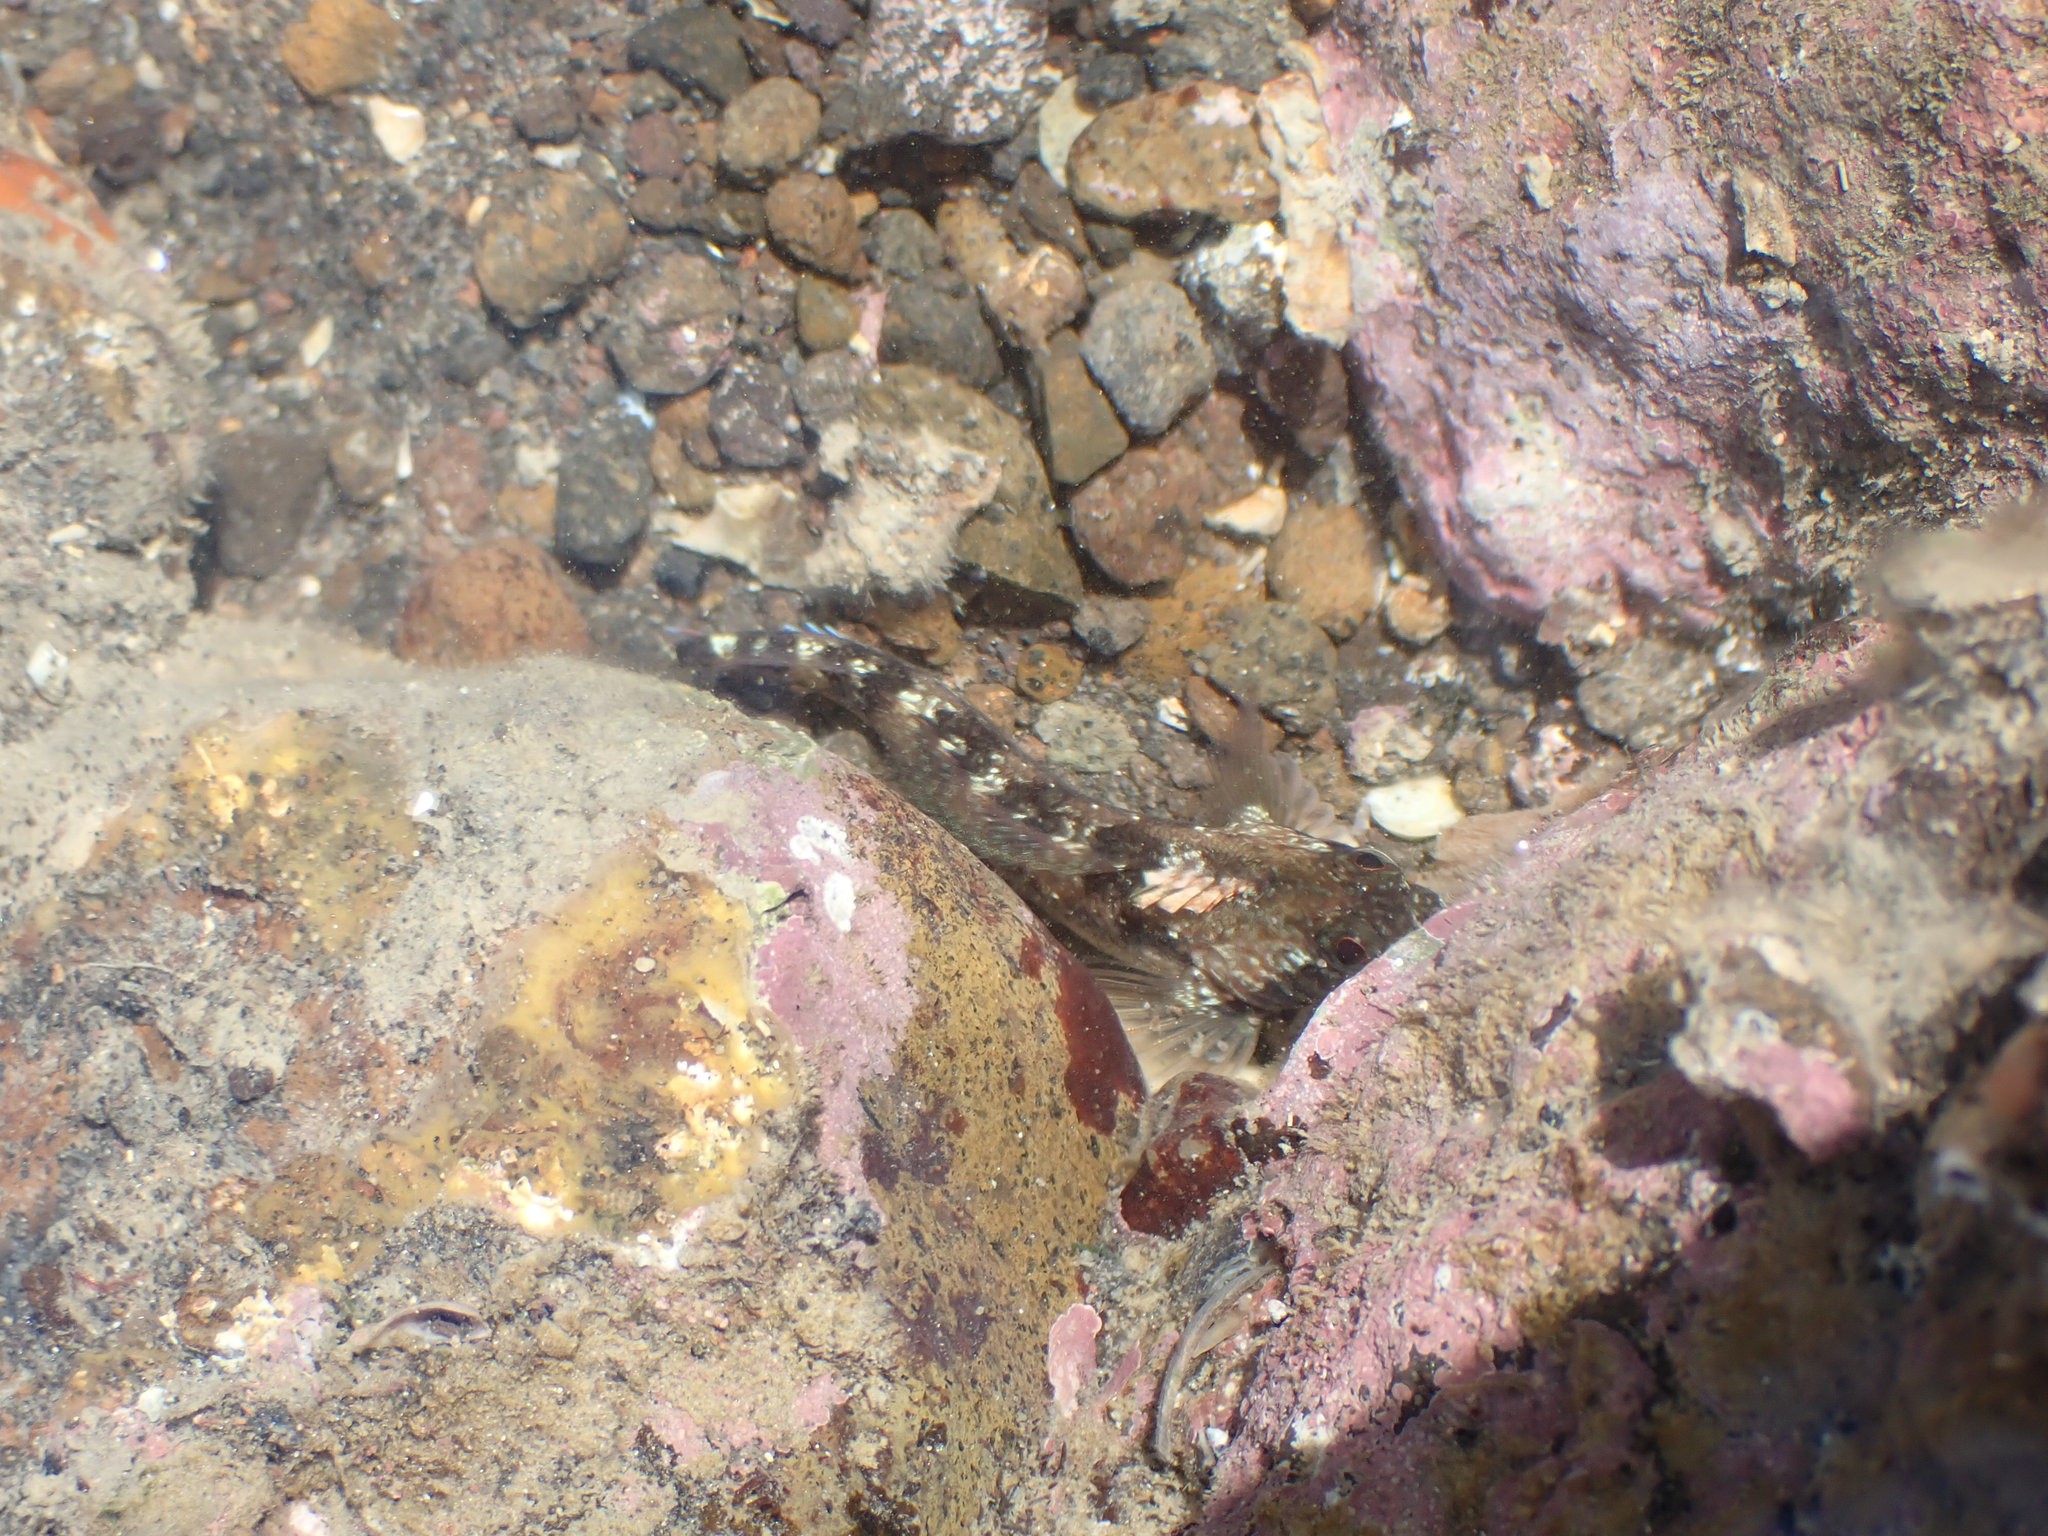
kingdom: Animalia
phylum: Chordata
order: Perciformes
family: Tripterygiidae
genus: Forsterygion
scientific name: Forsterygion lapillum
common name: Common triplefin
